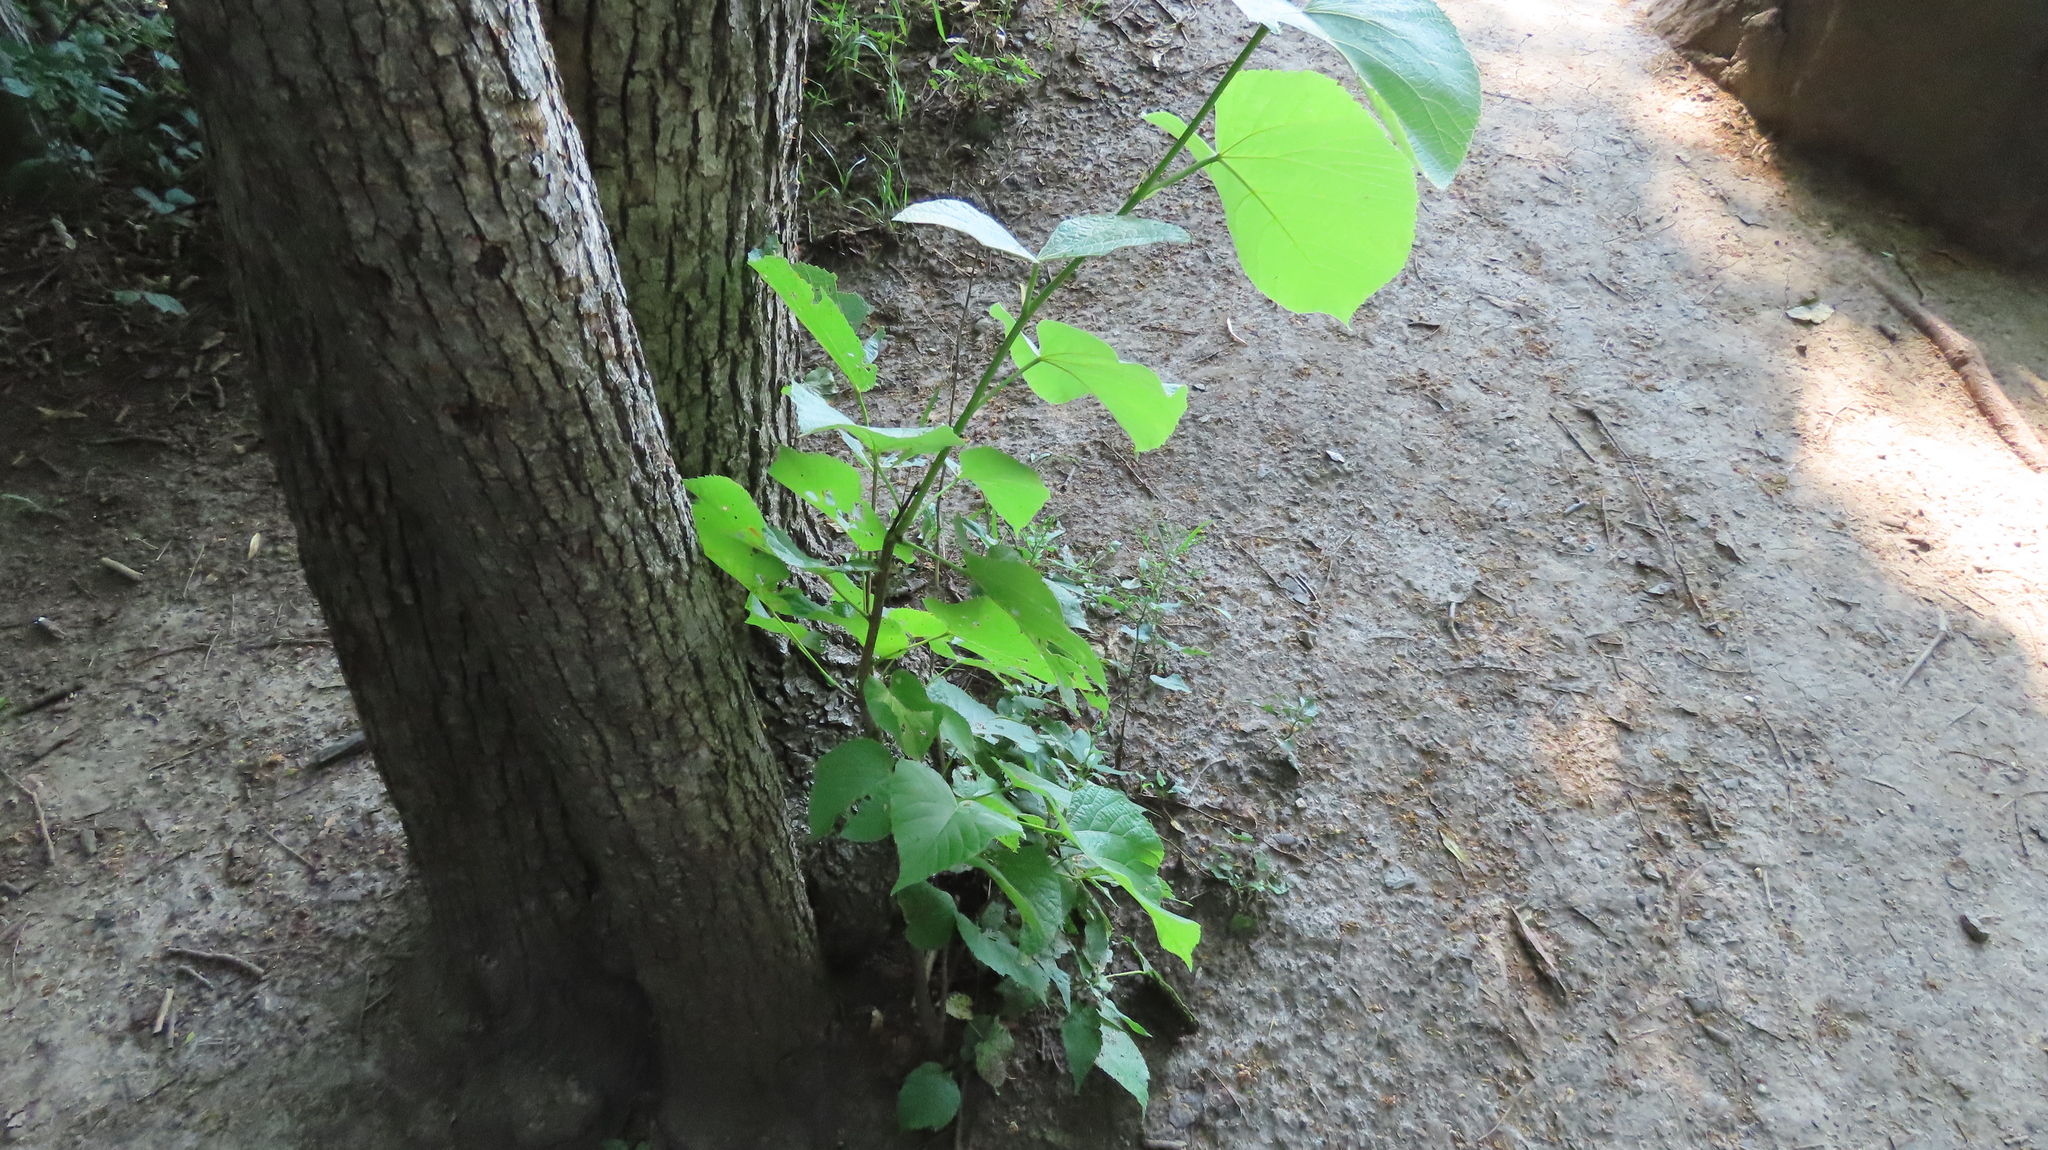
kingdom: Plantae
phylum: Tracheophyta
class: Magnoliopsida
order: Malvales
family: Malvaceae
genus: Tilia
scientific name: Tilia americana
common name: Basswood
